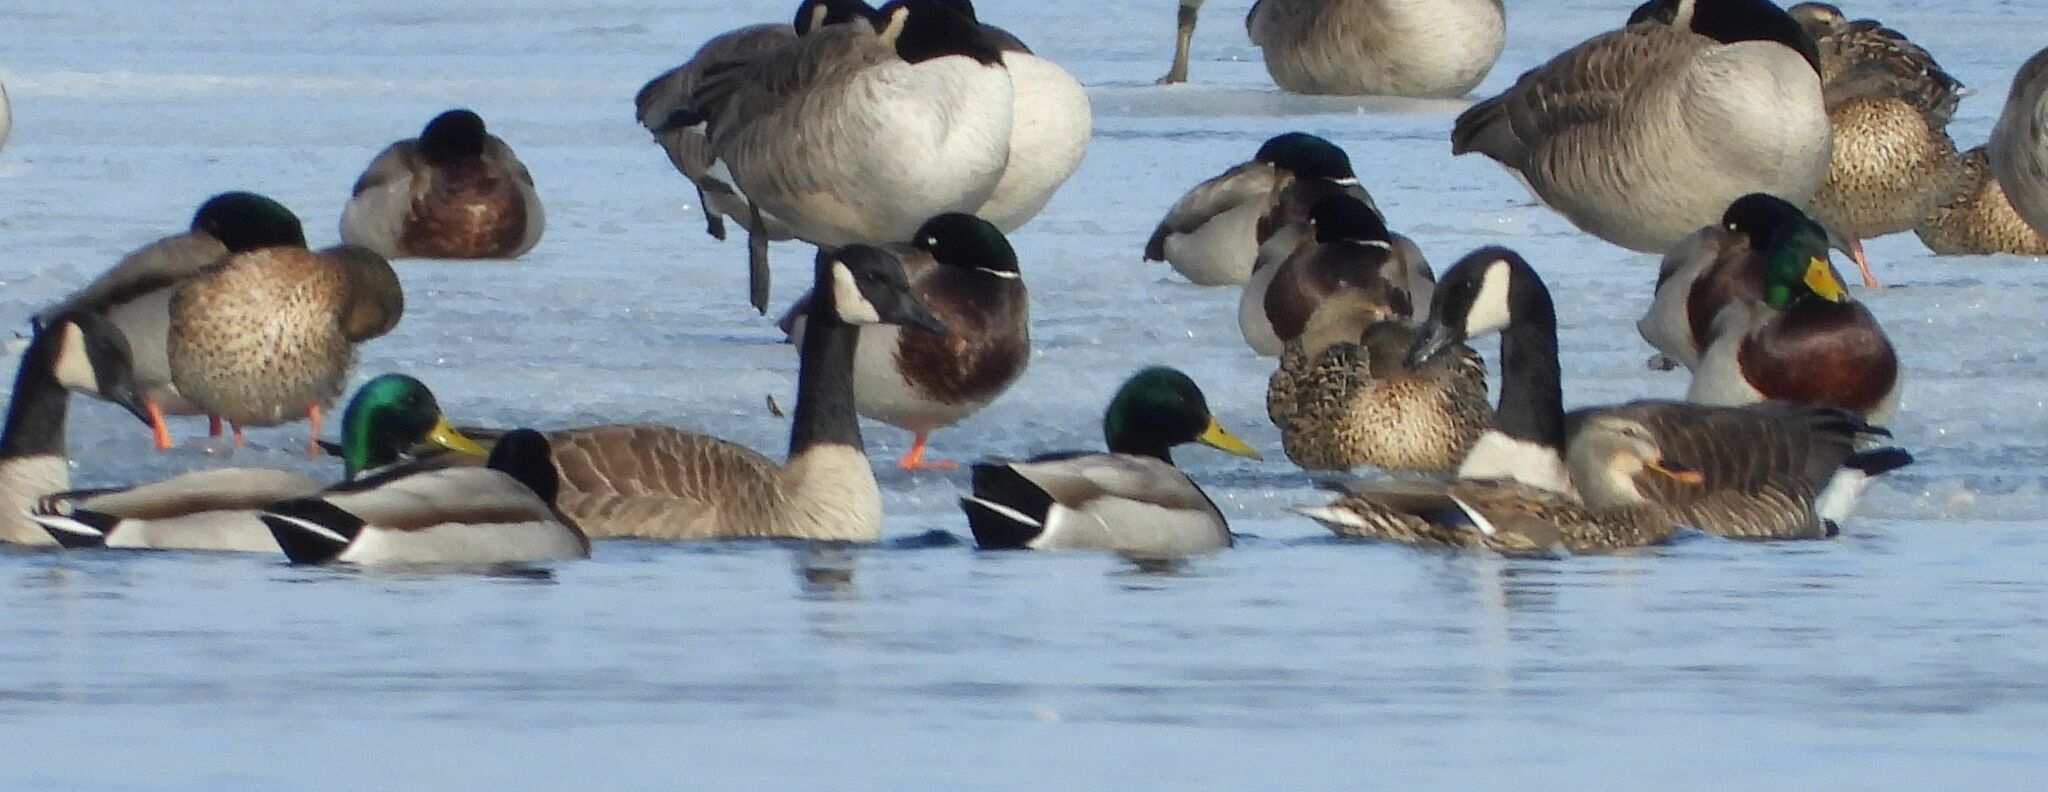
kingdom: Animalia
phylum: Chordata
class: Aves
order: Anseriformes
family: Anatidae
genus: Anas
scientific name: Anas platyrhynchos
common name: Mallard
